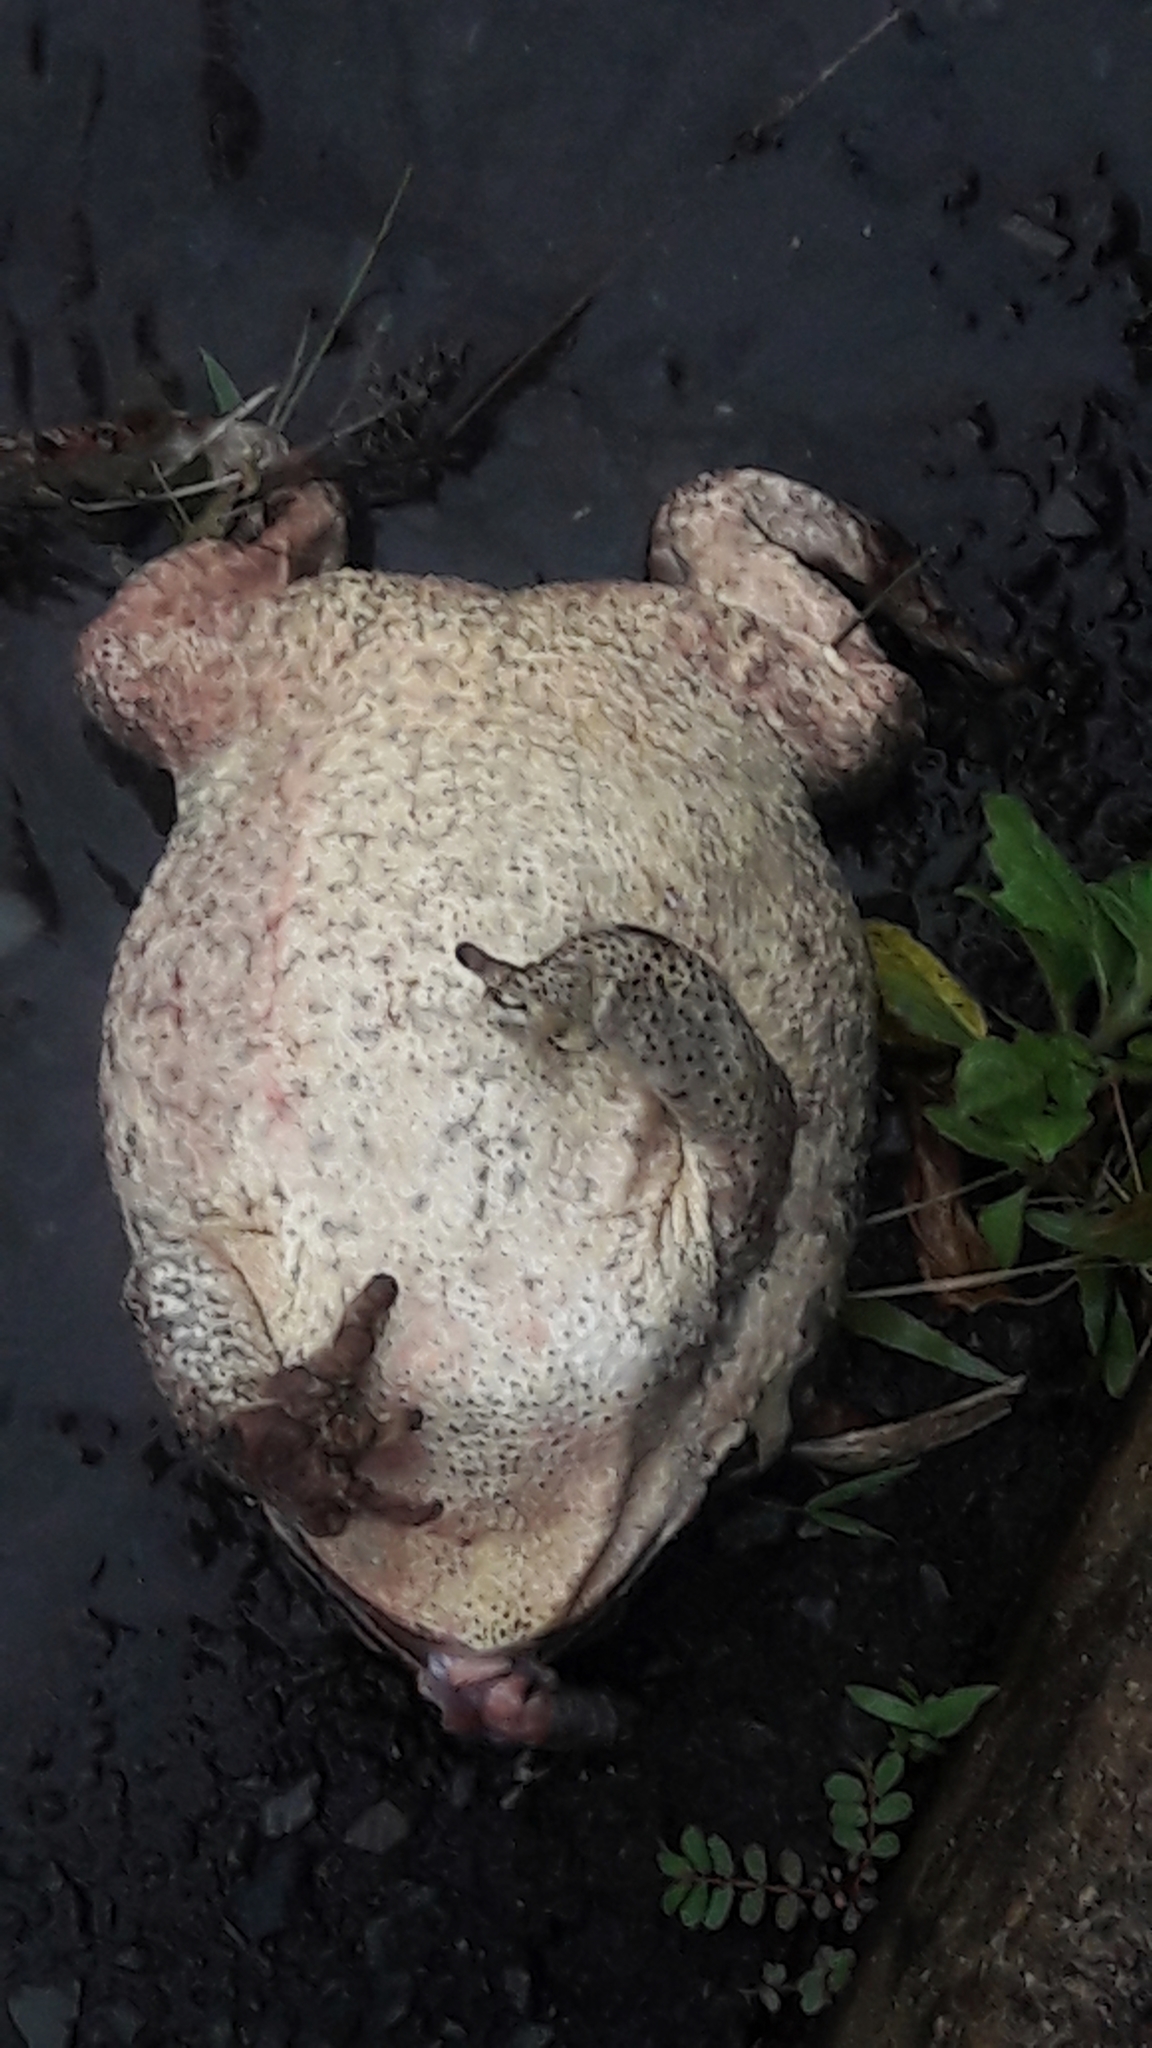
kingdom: Animalia
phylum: Chordata
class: Amphibia
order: Anura
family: Bufonidae
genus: Rhinella
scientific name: Rhinella diptycha
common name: Cope's toad
